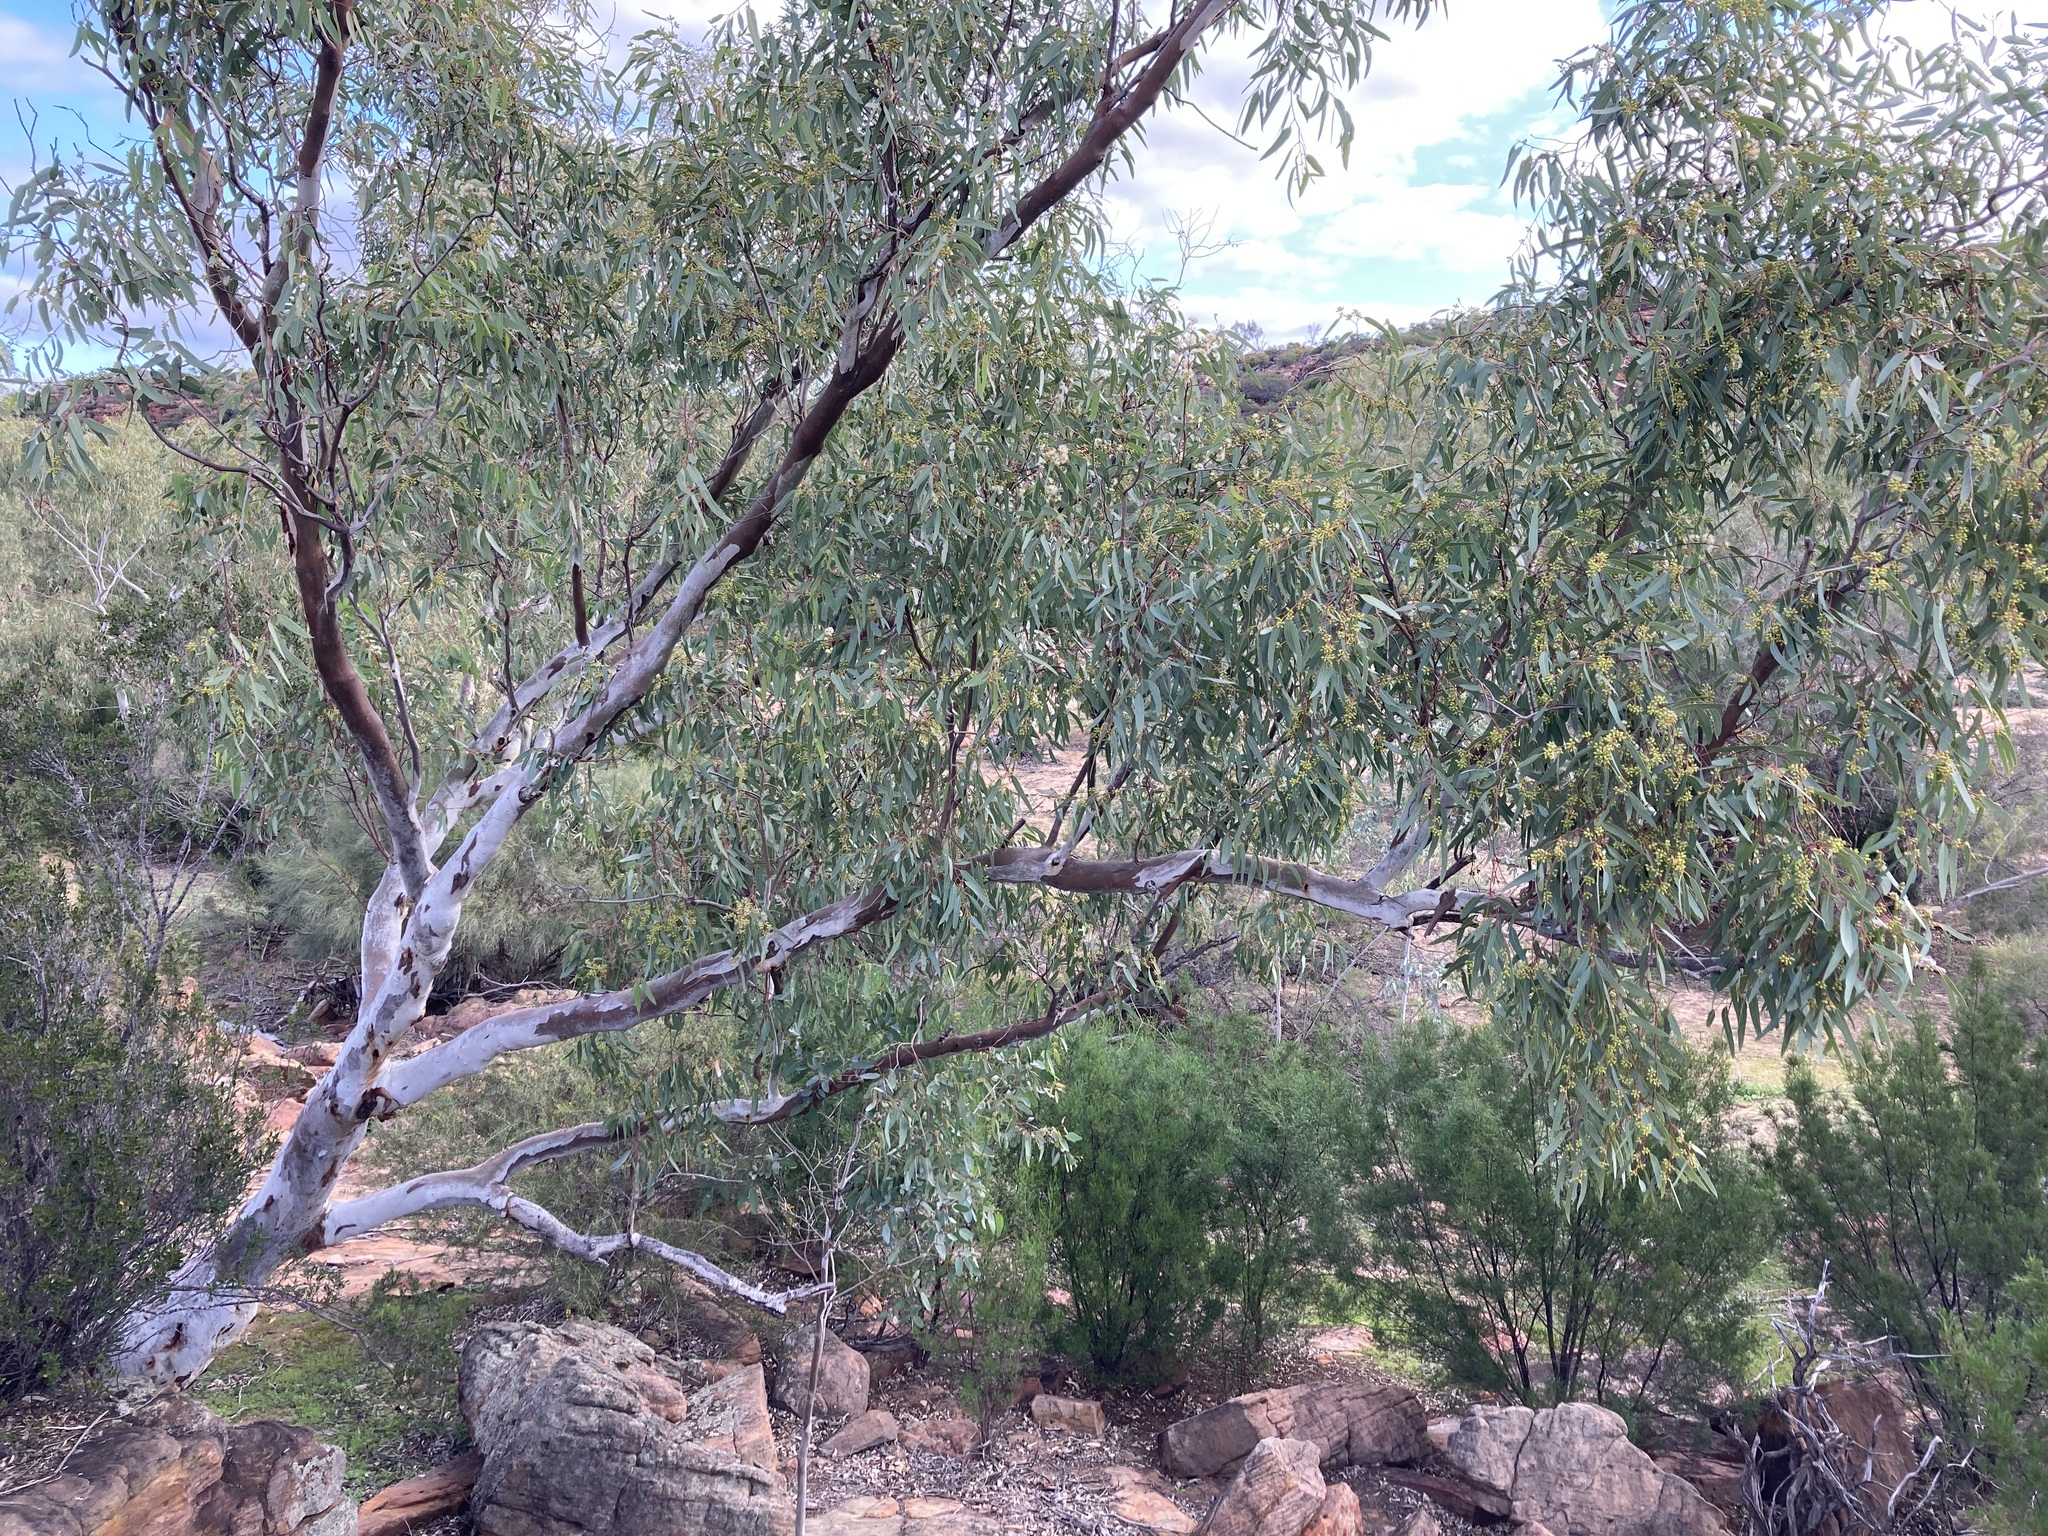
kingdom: Plantae
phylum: Tracheophyta
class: Magnoliopsida
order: Myrtales
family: Myrtaceae
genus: Eucalyptus
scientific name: Eucalyptus camaldulensis
